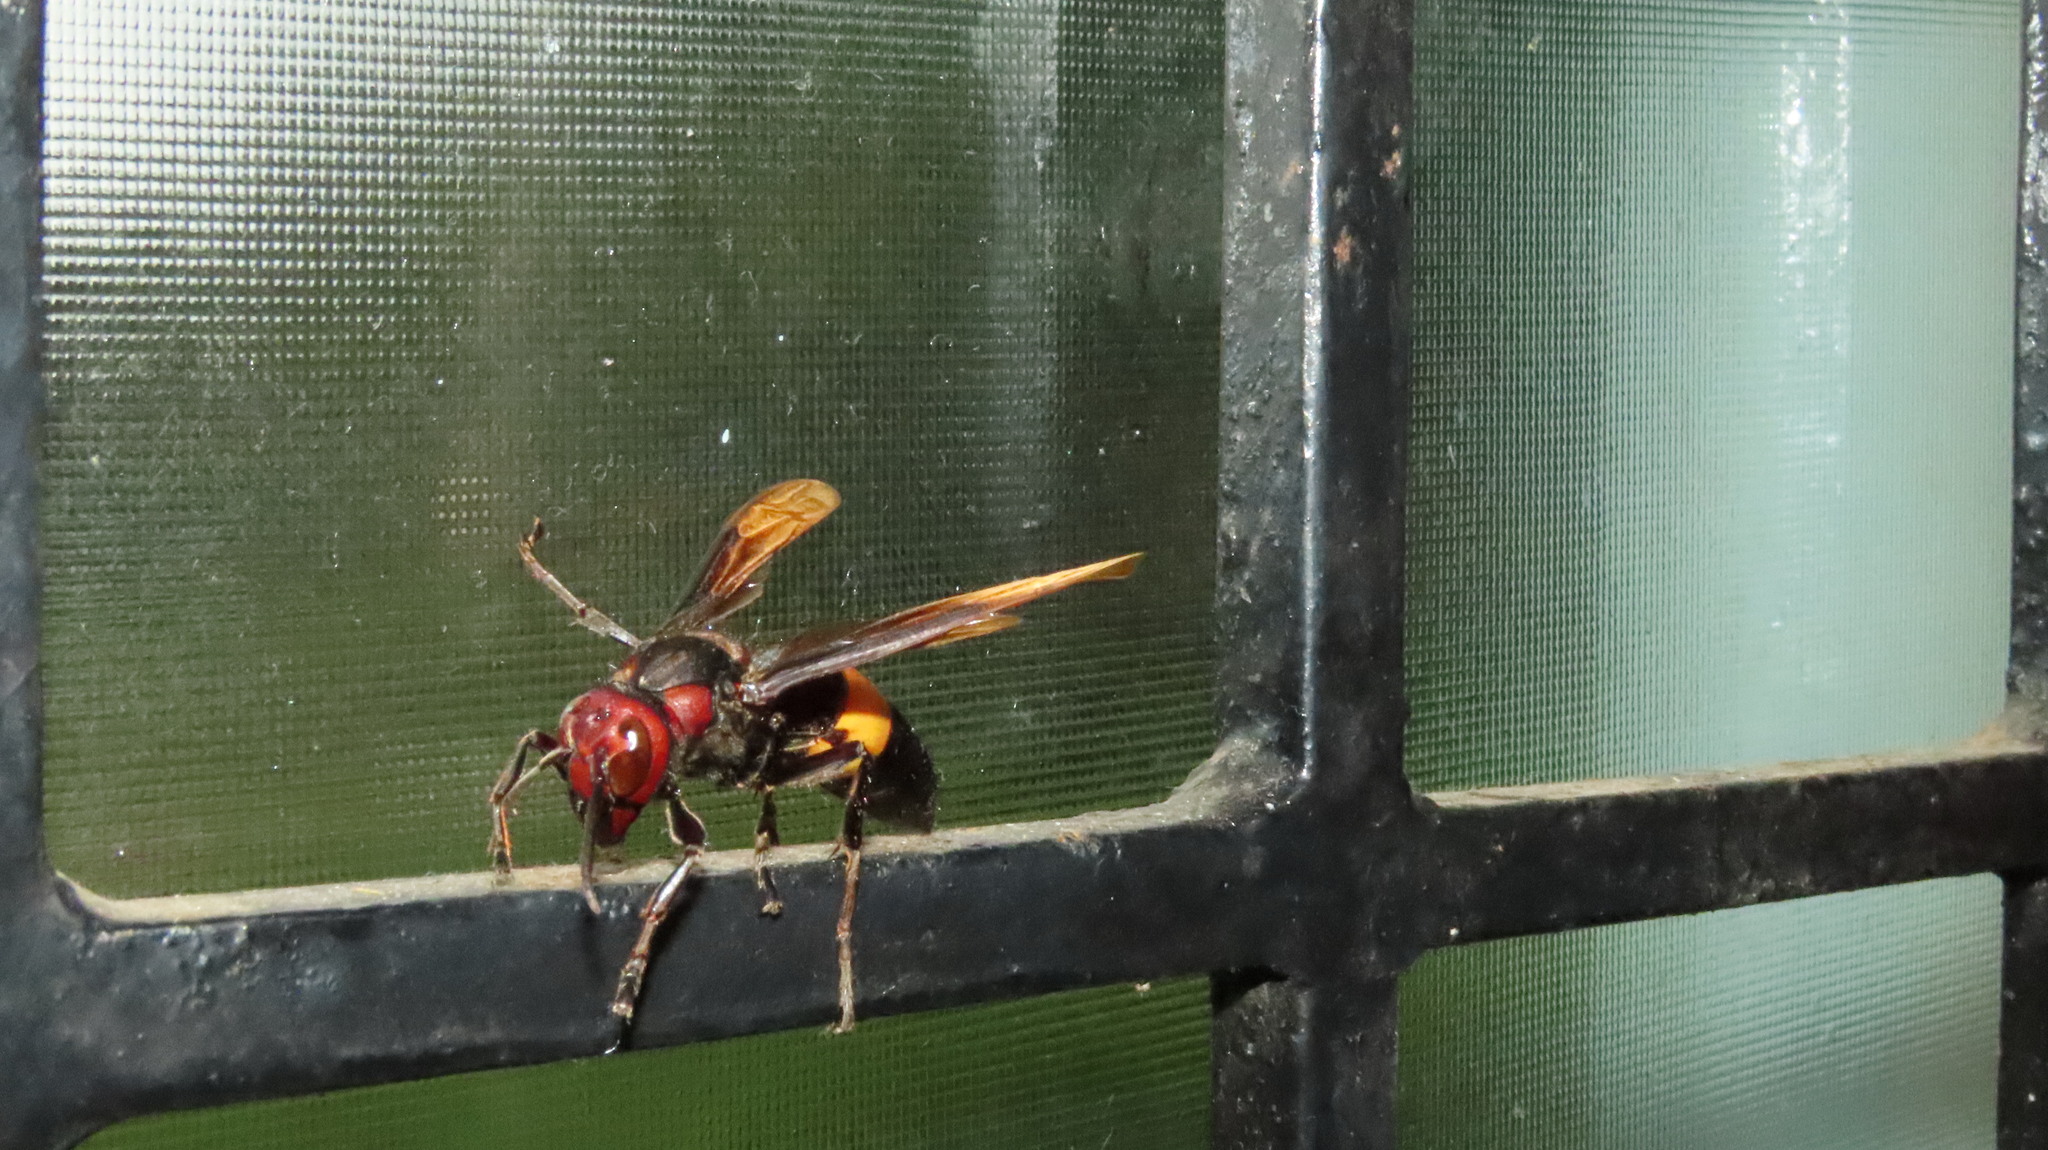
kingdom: Animalia
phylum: Arthropoda
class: Insecta
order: Hymenoptera
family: Vespidae
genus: Vespa
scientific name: Vespa tropica
